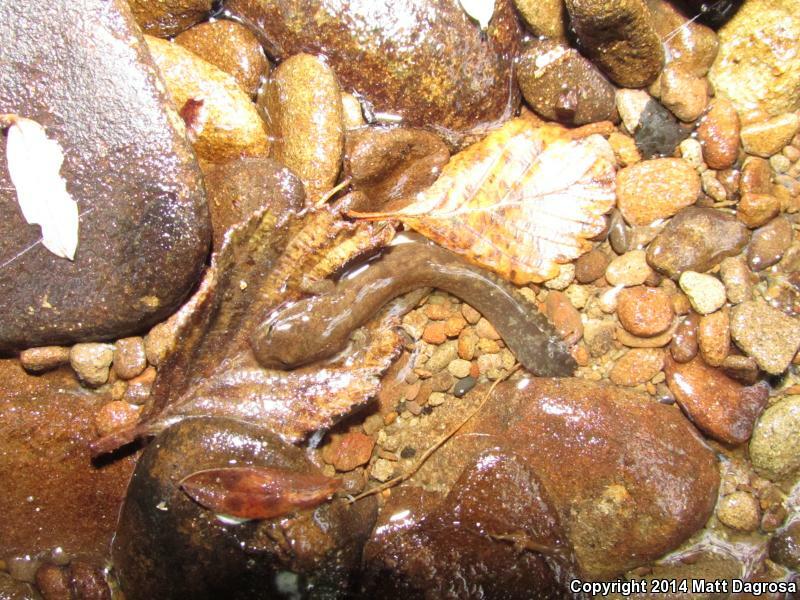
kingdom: Animalia
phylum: Chordata
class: Amphibia
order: Caudata
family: Ambystomatidae
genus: Dicamptodon
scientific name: Dicamptodon tenebrosus
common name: Coastal giant salamander
